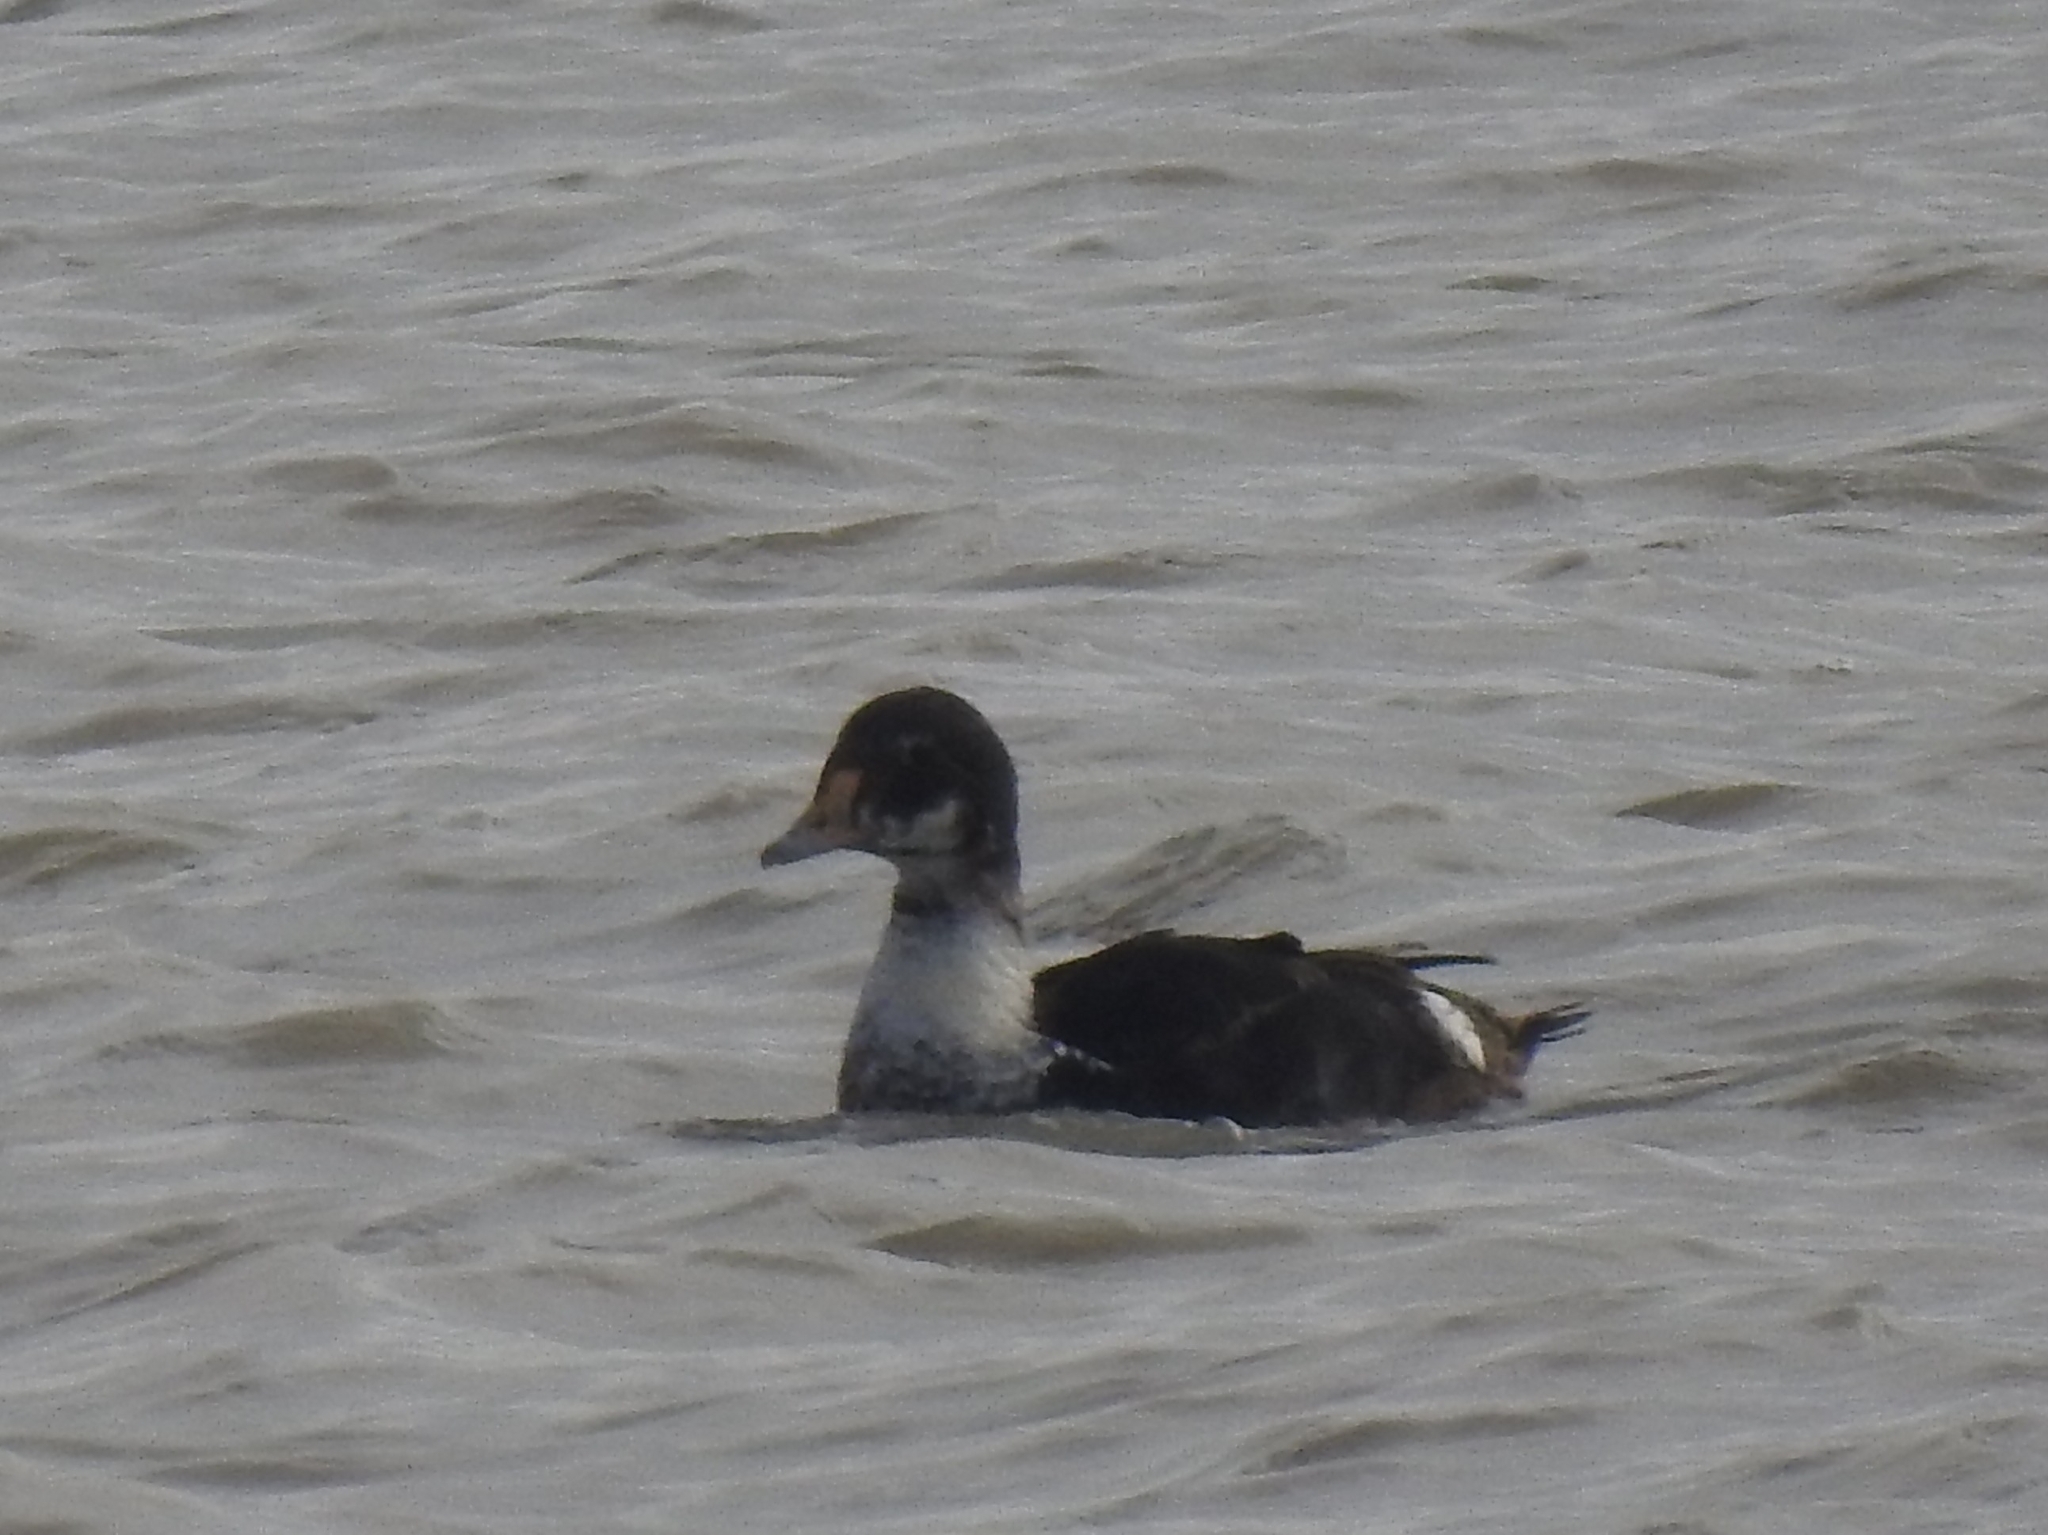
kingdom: Animalia
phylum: Chordata
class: Aves
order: Anseriformes
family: Anatidae
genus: Somateria
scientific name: Somateria spectabilis
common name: King eider
